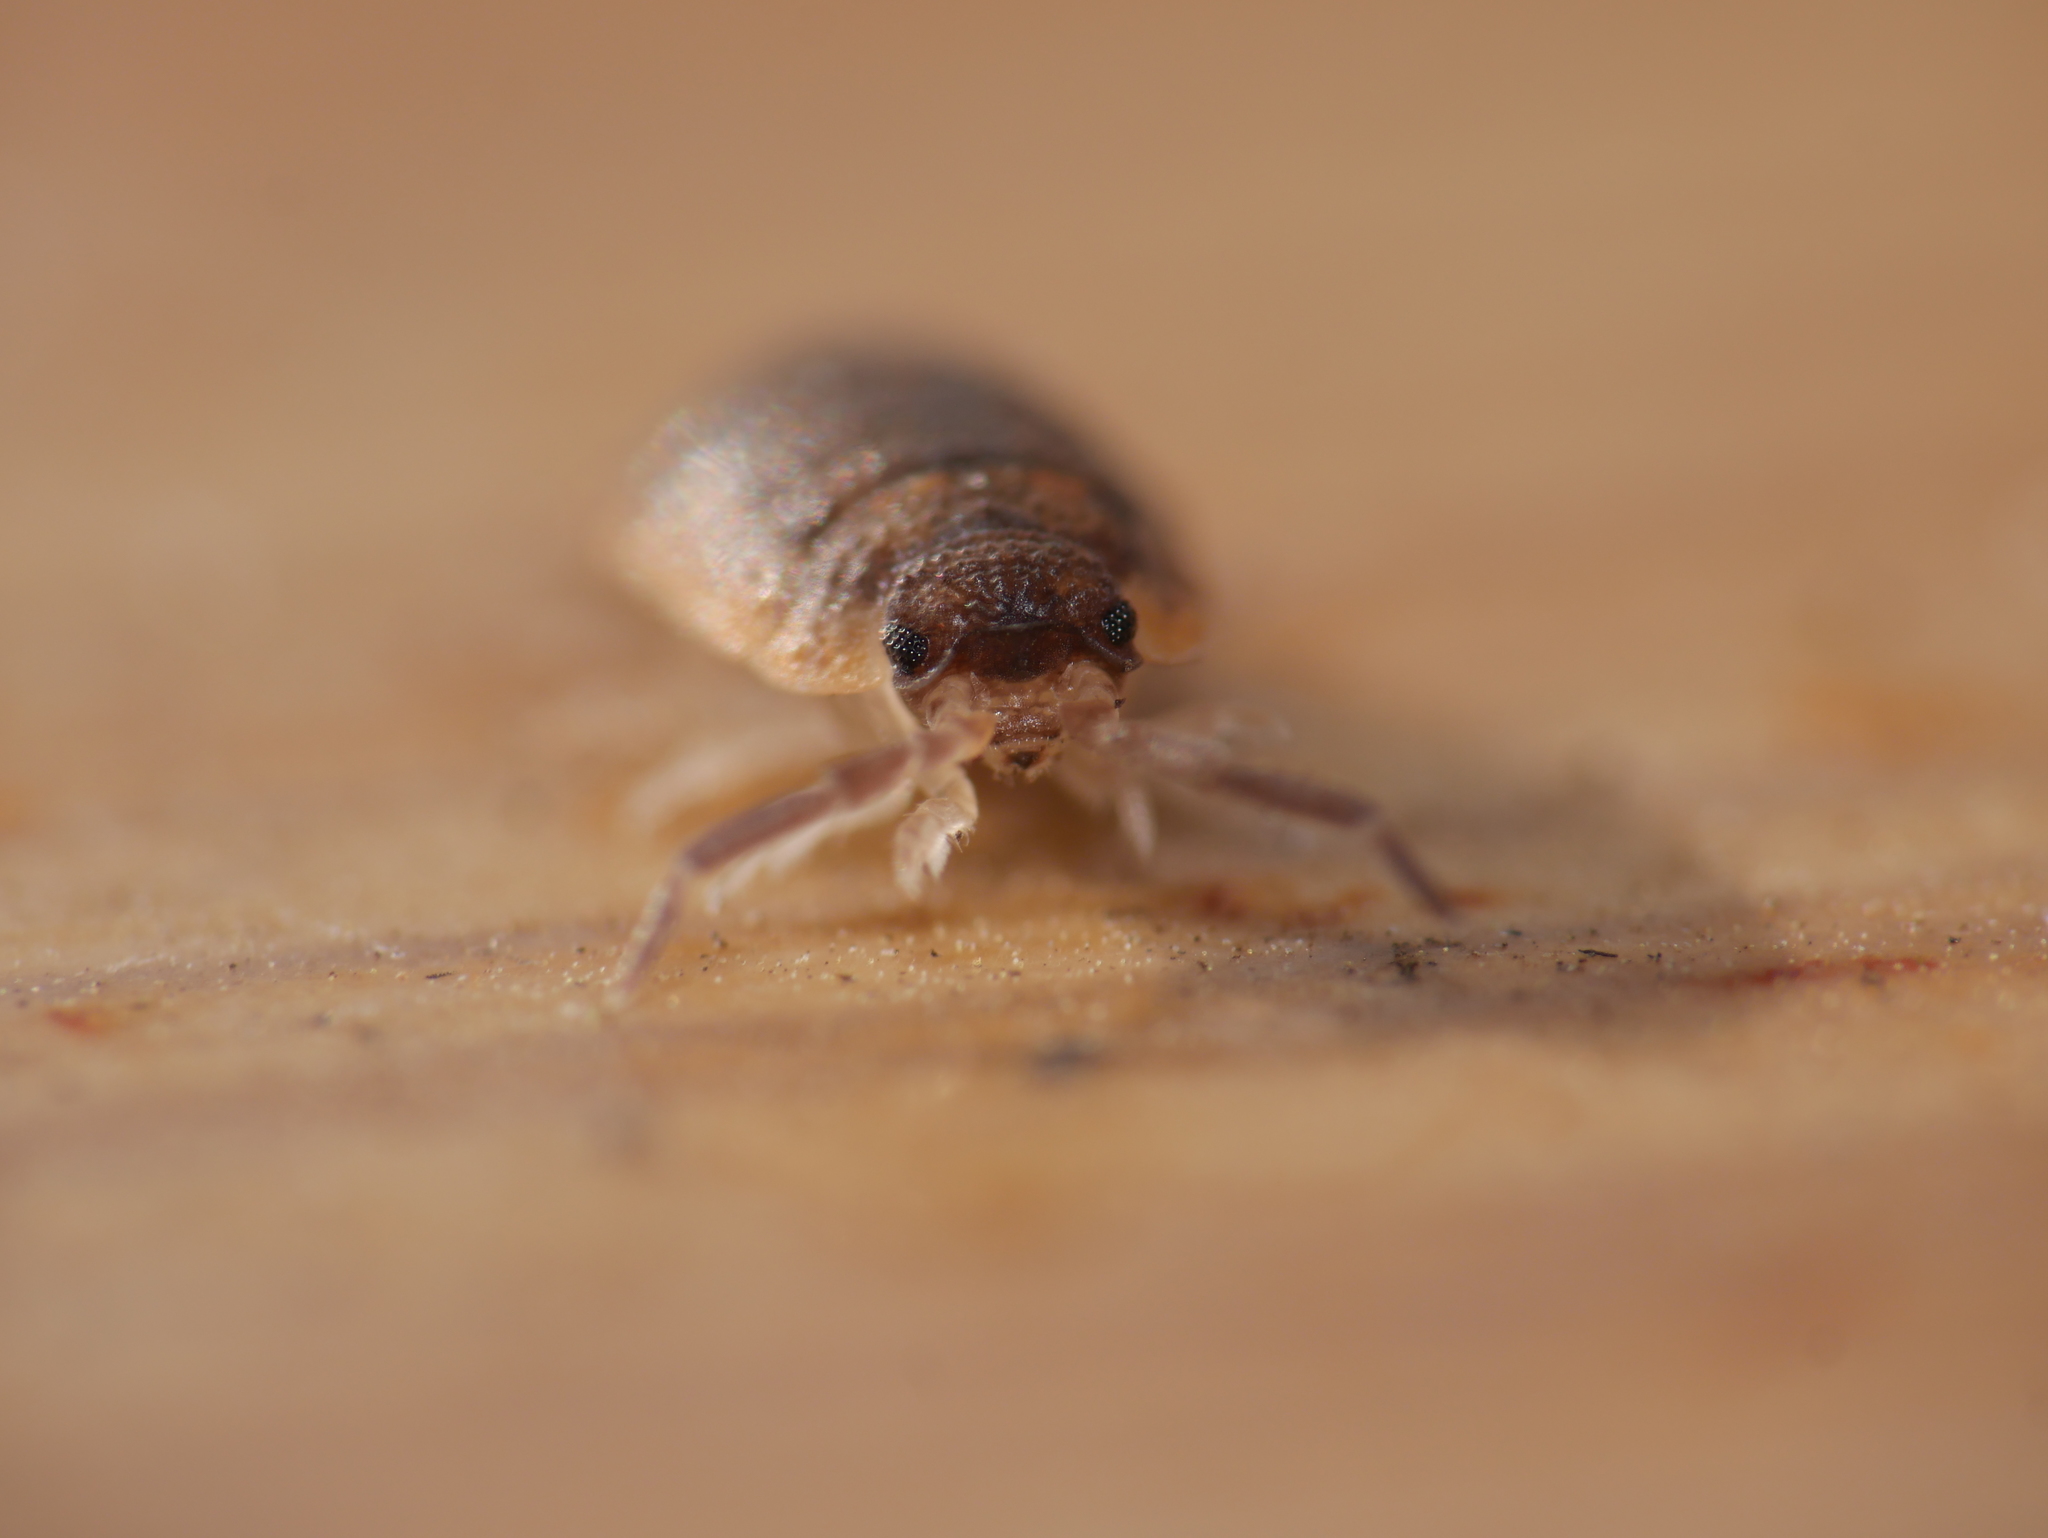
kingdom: Animalia
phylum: Arthropoda
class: Malacostraca
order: Isopoda
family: Porcellionidae
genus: Porcellio
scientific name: Porcellio scaber
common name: Common rough woodlouse
